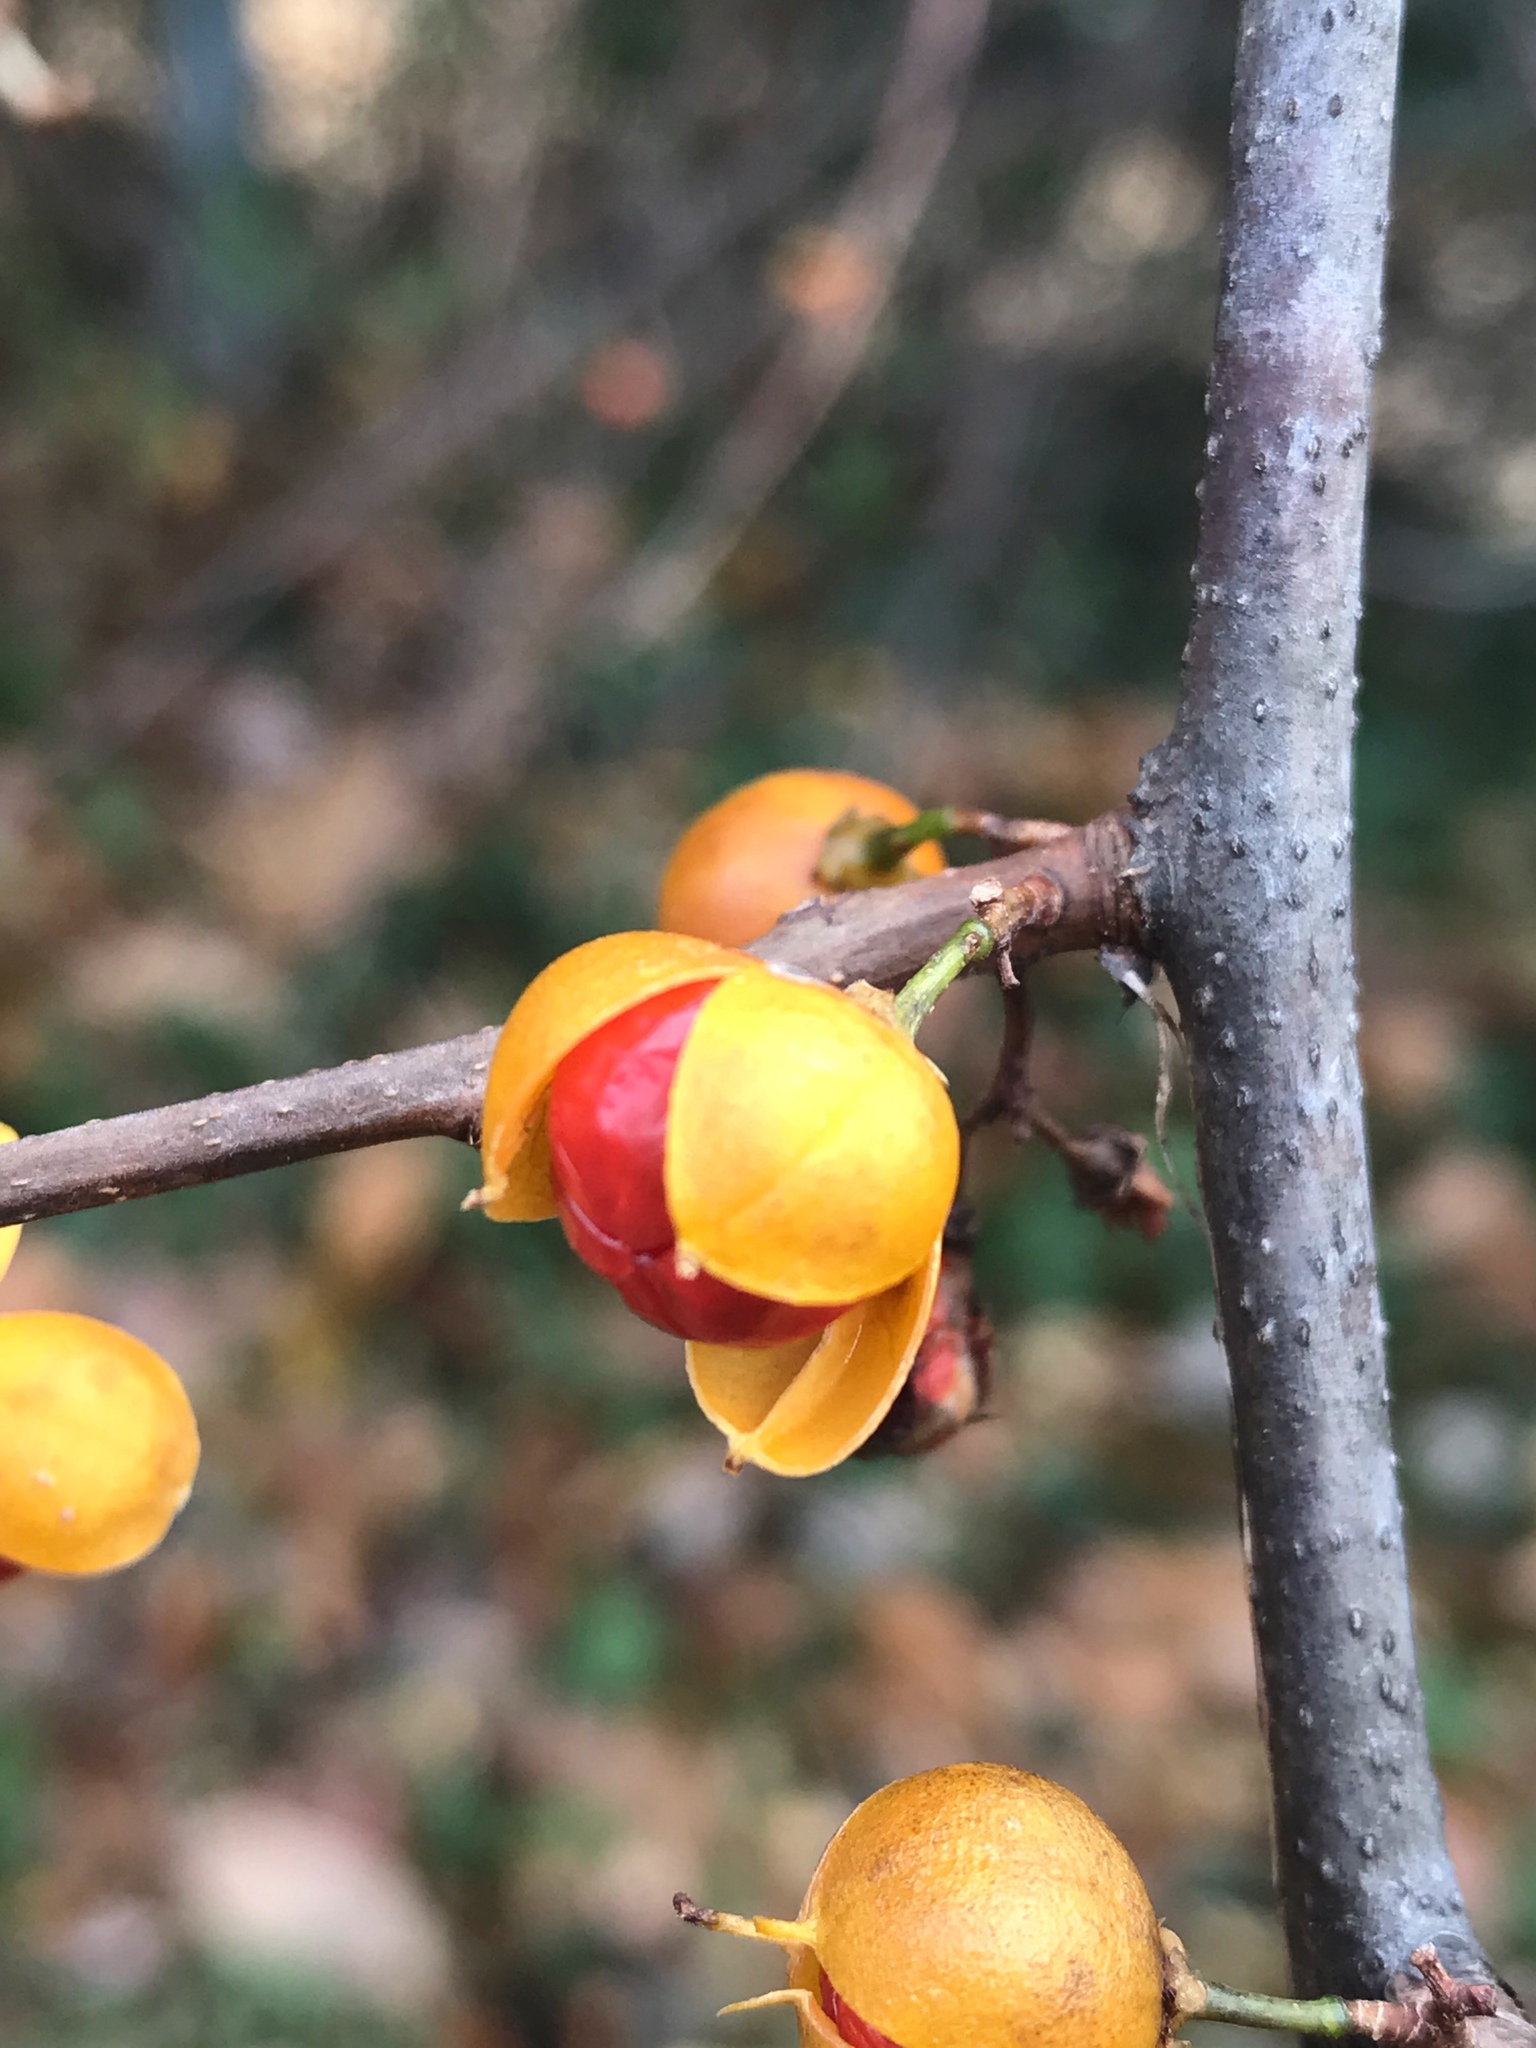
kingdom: Plantae
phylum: Tracheophyta
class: Magnoliopsida
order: Celastrales
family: Celastraceae
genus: Celastrus
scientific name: Celastrus orbiculatus
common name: Oriental bittersweet
